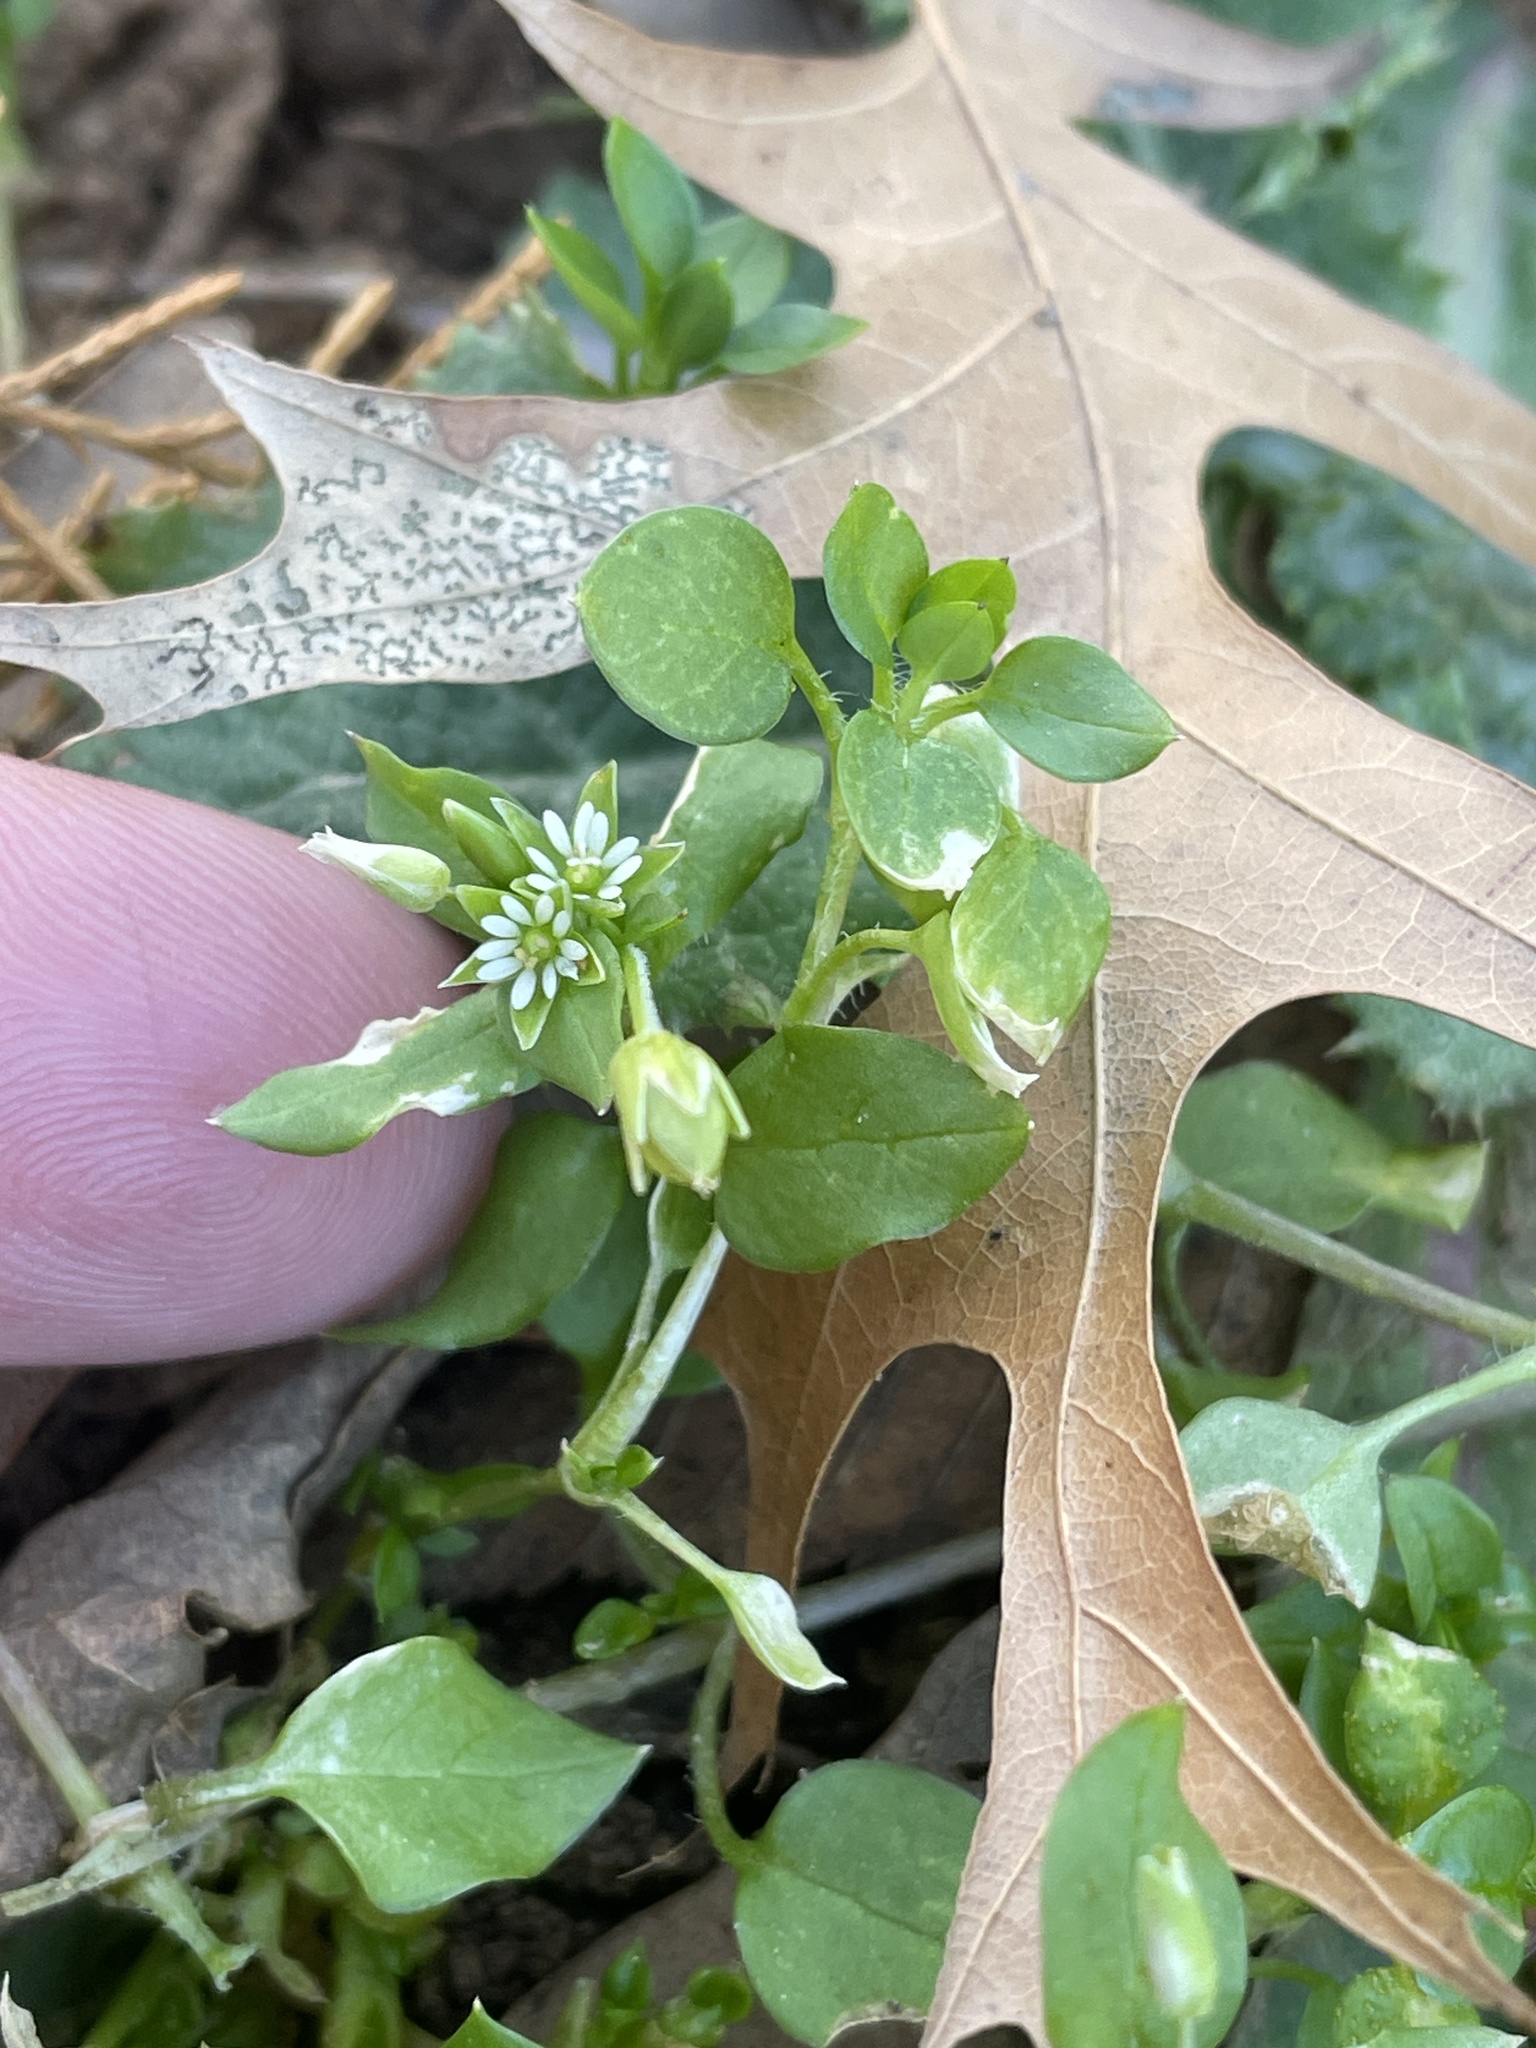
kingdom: Plantae
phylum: Tracheophyta
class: Magnoliopsida
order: Caryophyllales
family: Caryophyllaceae
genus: Stellaria
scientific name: Stellaria media
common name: Common chickweed
